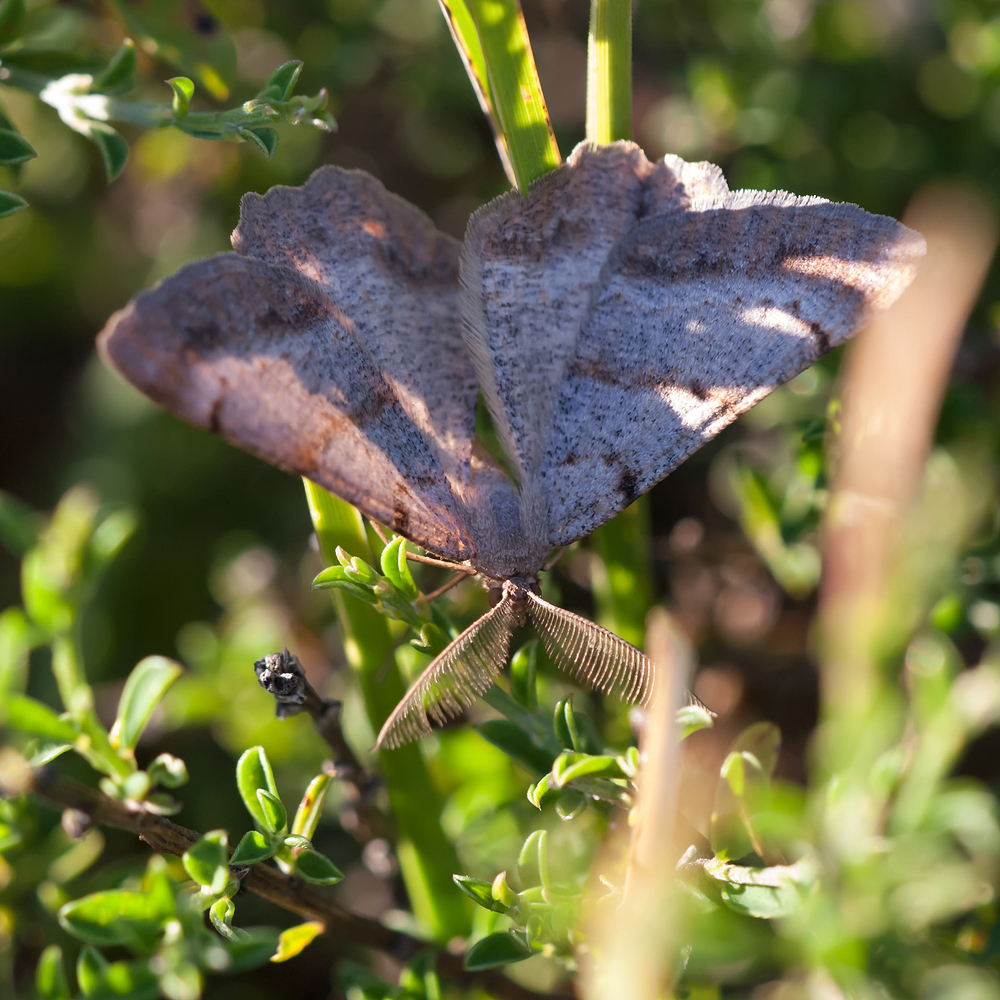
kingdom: Animalia
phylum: Arthropoda
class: Insecta
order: Lepidoptera
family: Geometridae
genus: Selidosema
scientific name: Selidosema brunnearia
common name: Bordered grey
